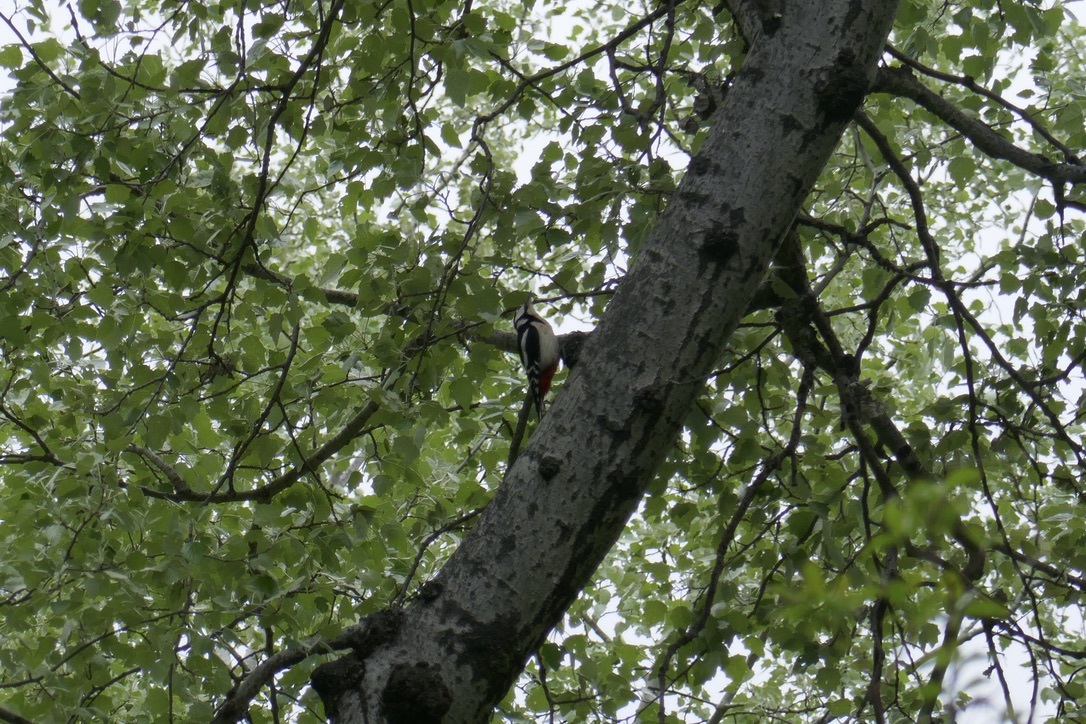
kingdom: Animalia
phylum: Chordata
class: Aves
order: Piciformes
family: Picidae
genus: Dendrocopos
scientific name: Dendrocopos major
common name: Great spotted woodpecker
